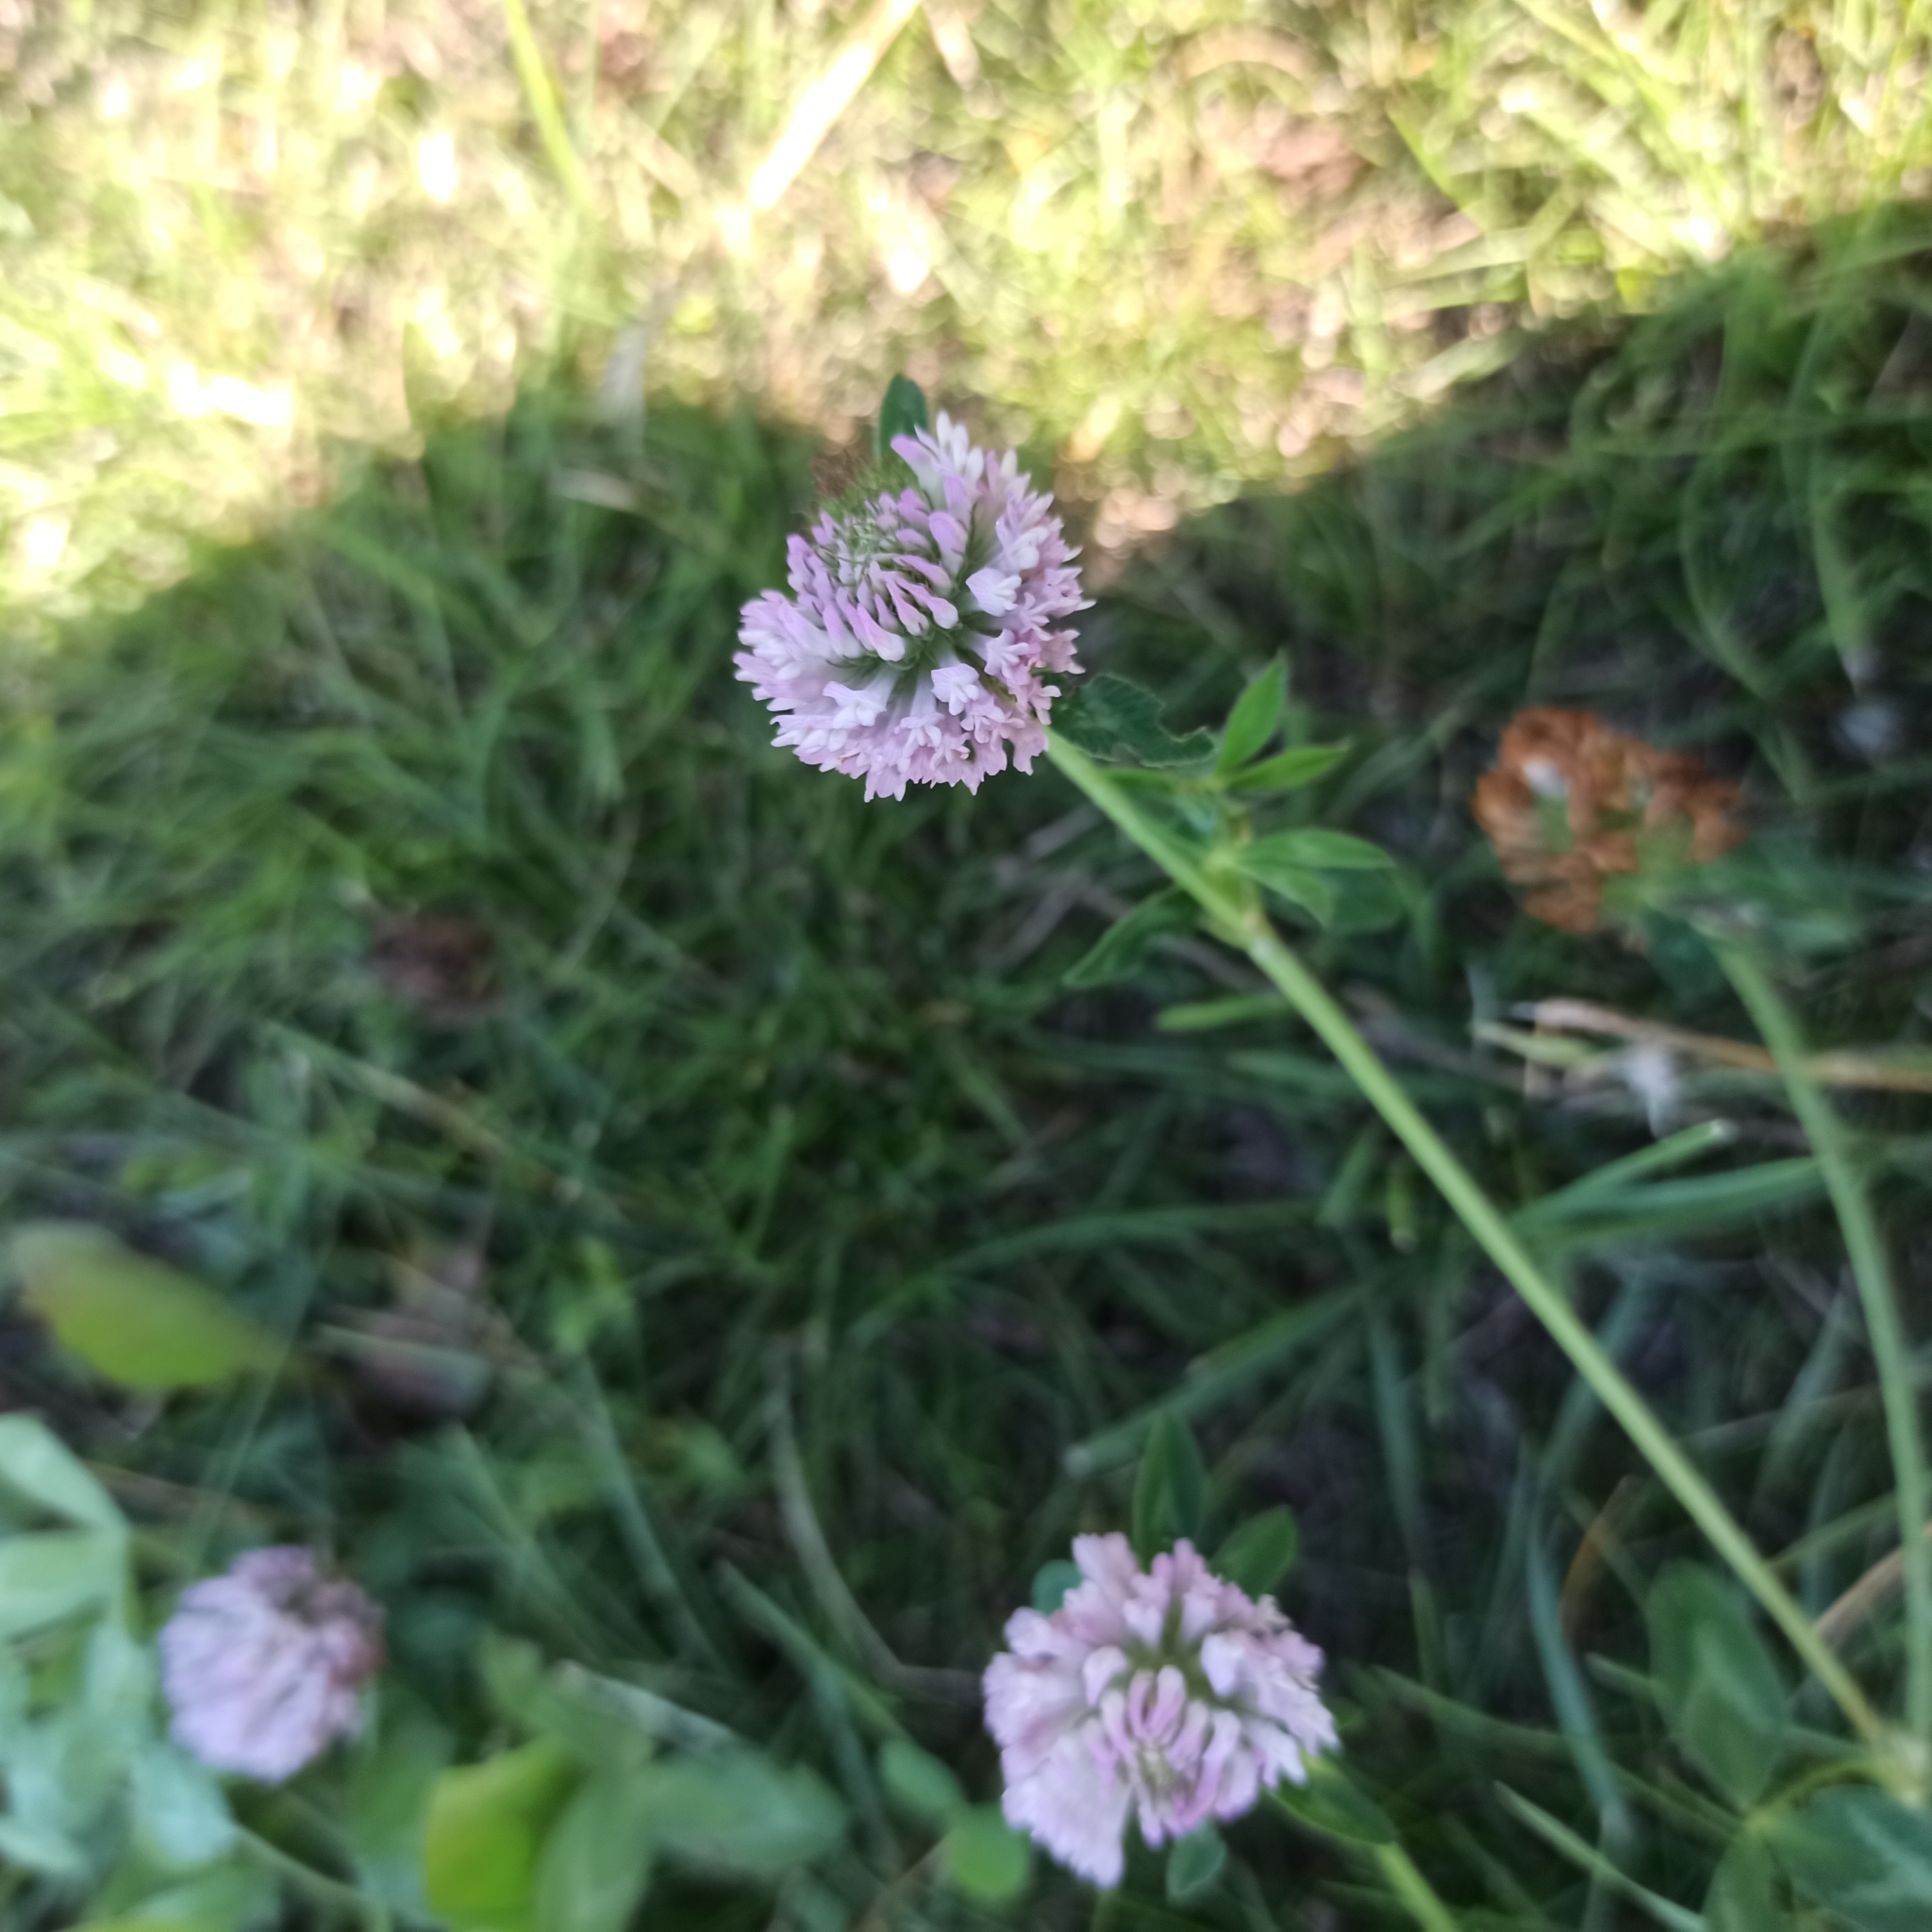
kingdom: Plantae
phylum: Tracheophyta
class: Magnoliopsida
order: Fabales
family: Fabaceae
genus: Trifolium
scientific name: Trifolium pratense
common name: Red clover
